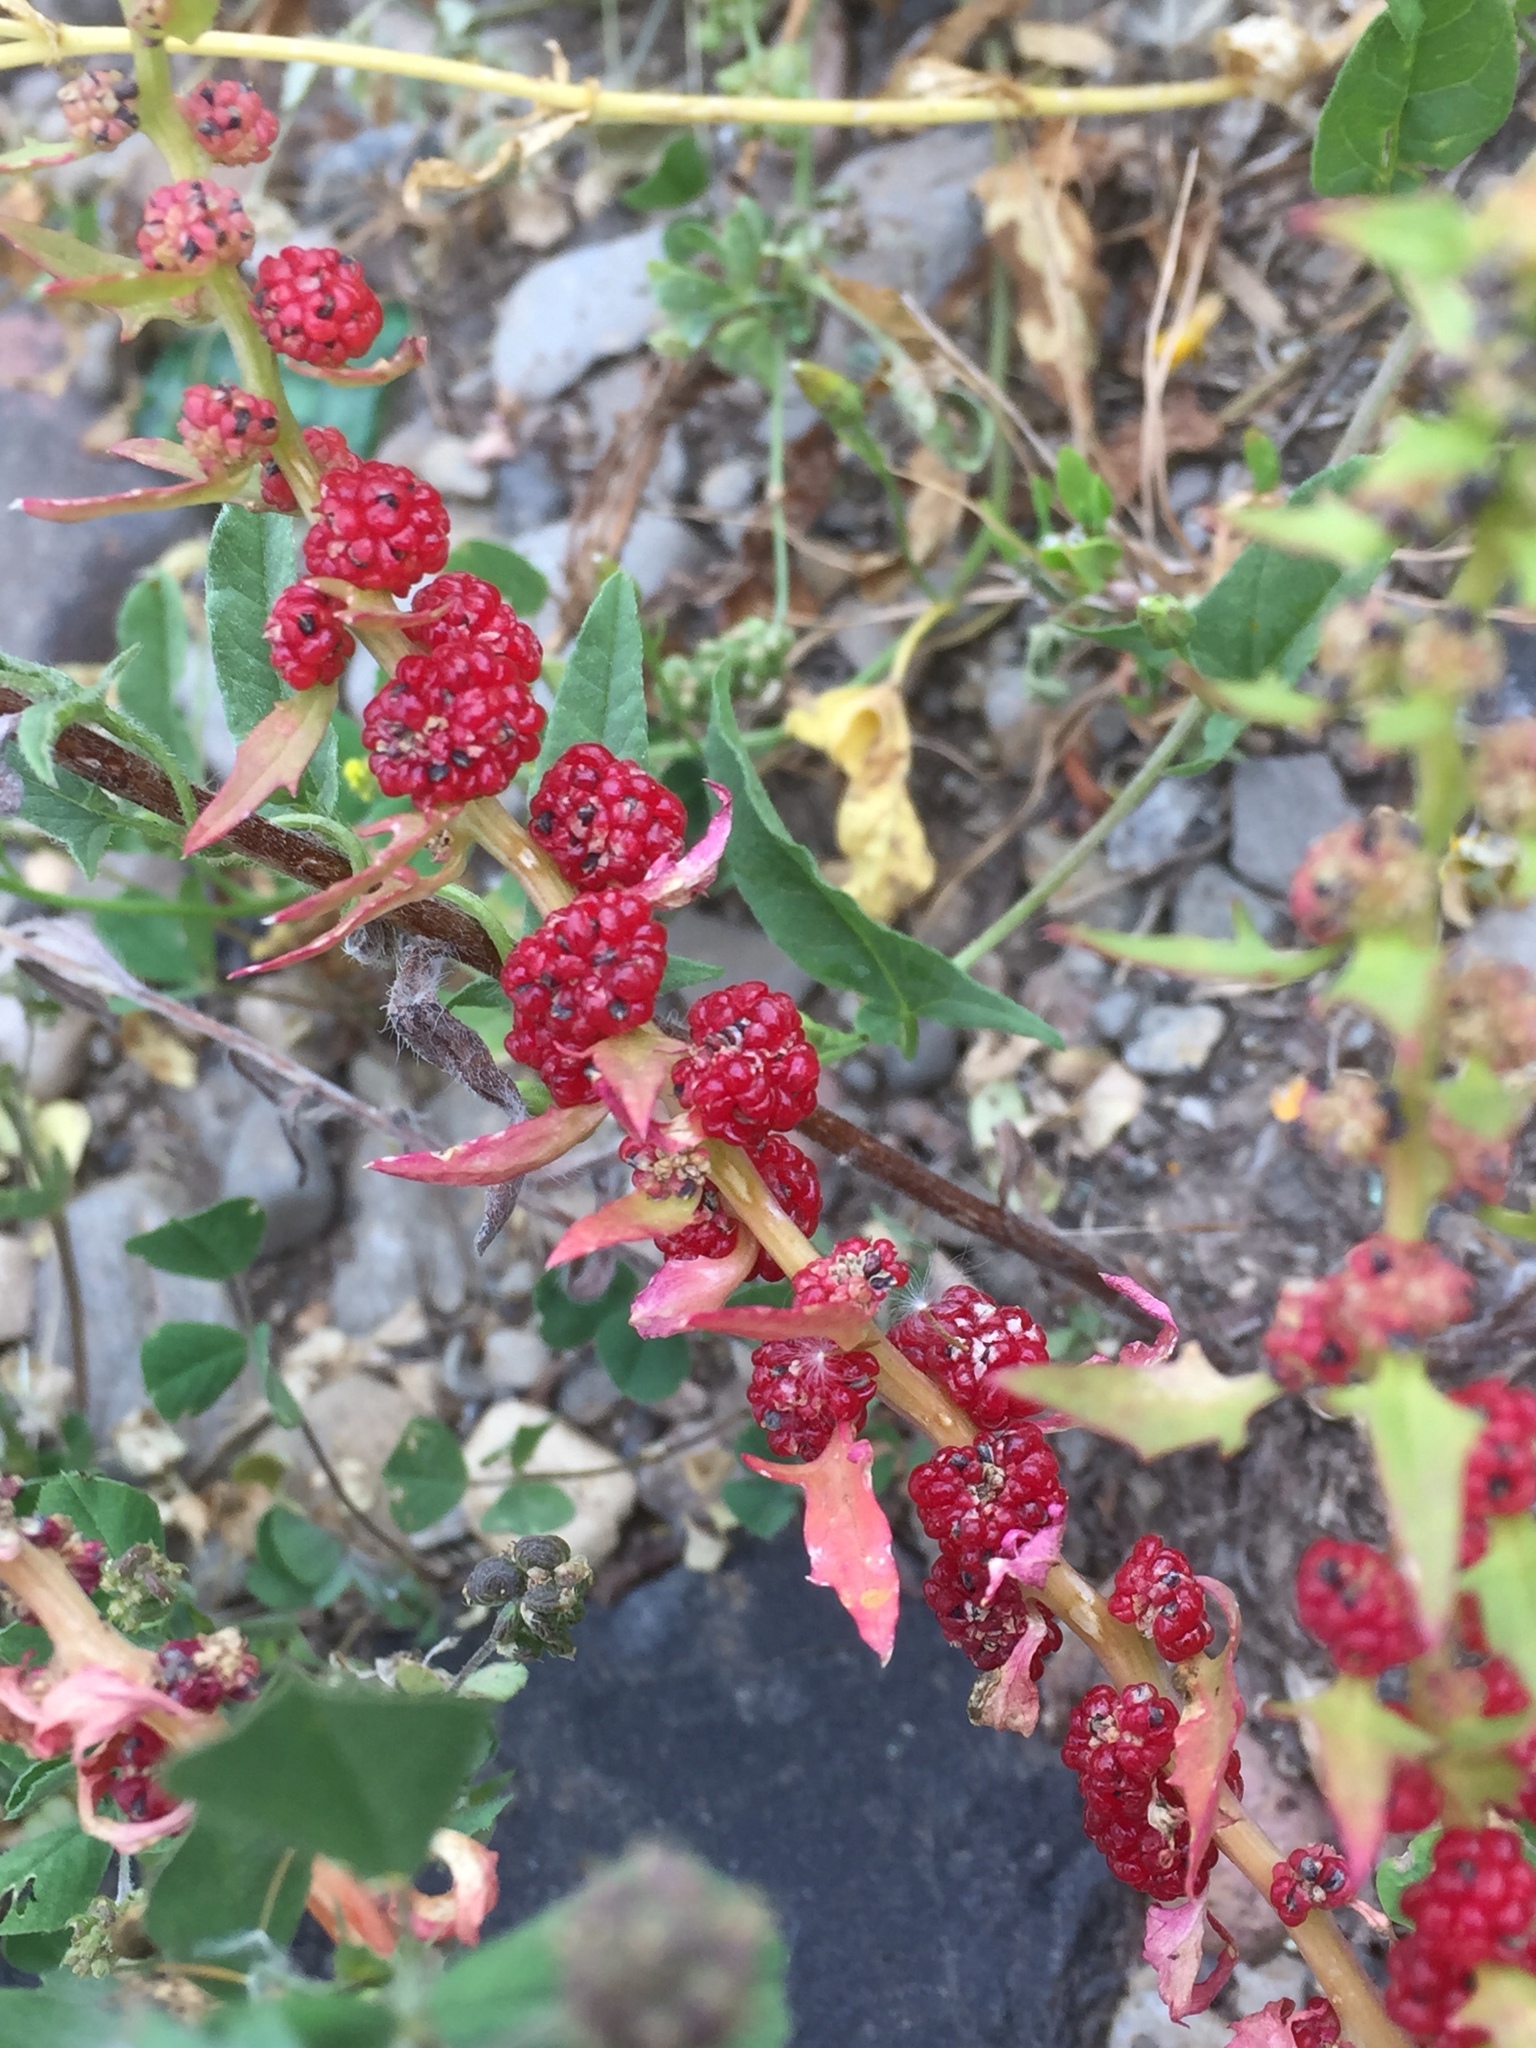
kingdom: Plantae
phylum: Tracheophyta
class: Magnoliopsida
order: Caryophyllales
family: Amaranthaceae
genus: Blitum
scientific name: Blitum virgatum
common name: Strawberry goosefoot
